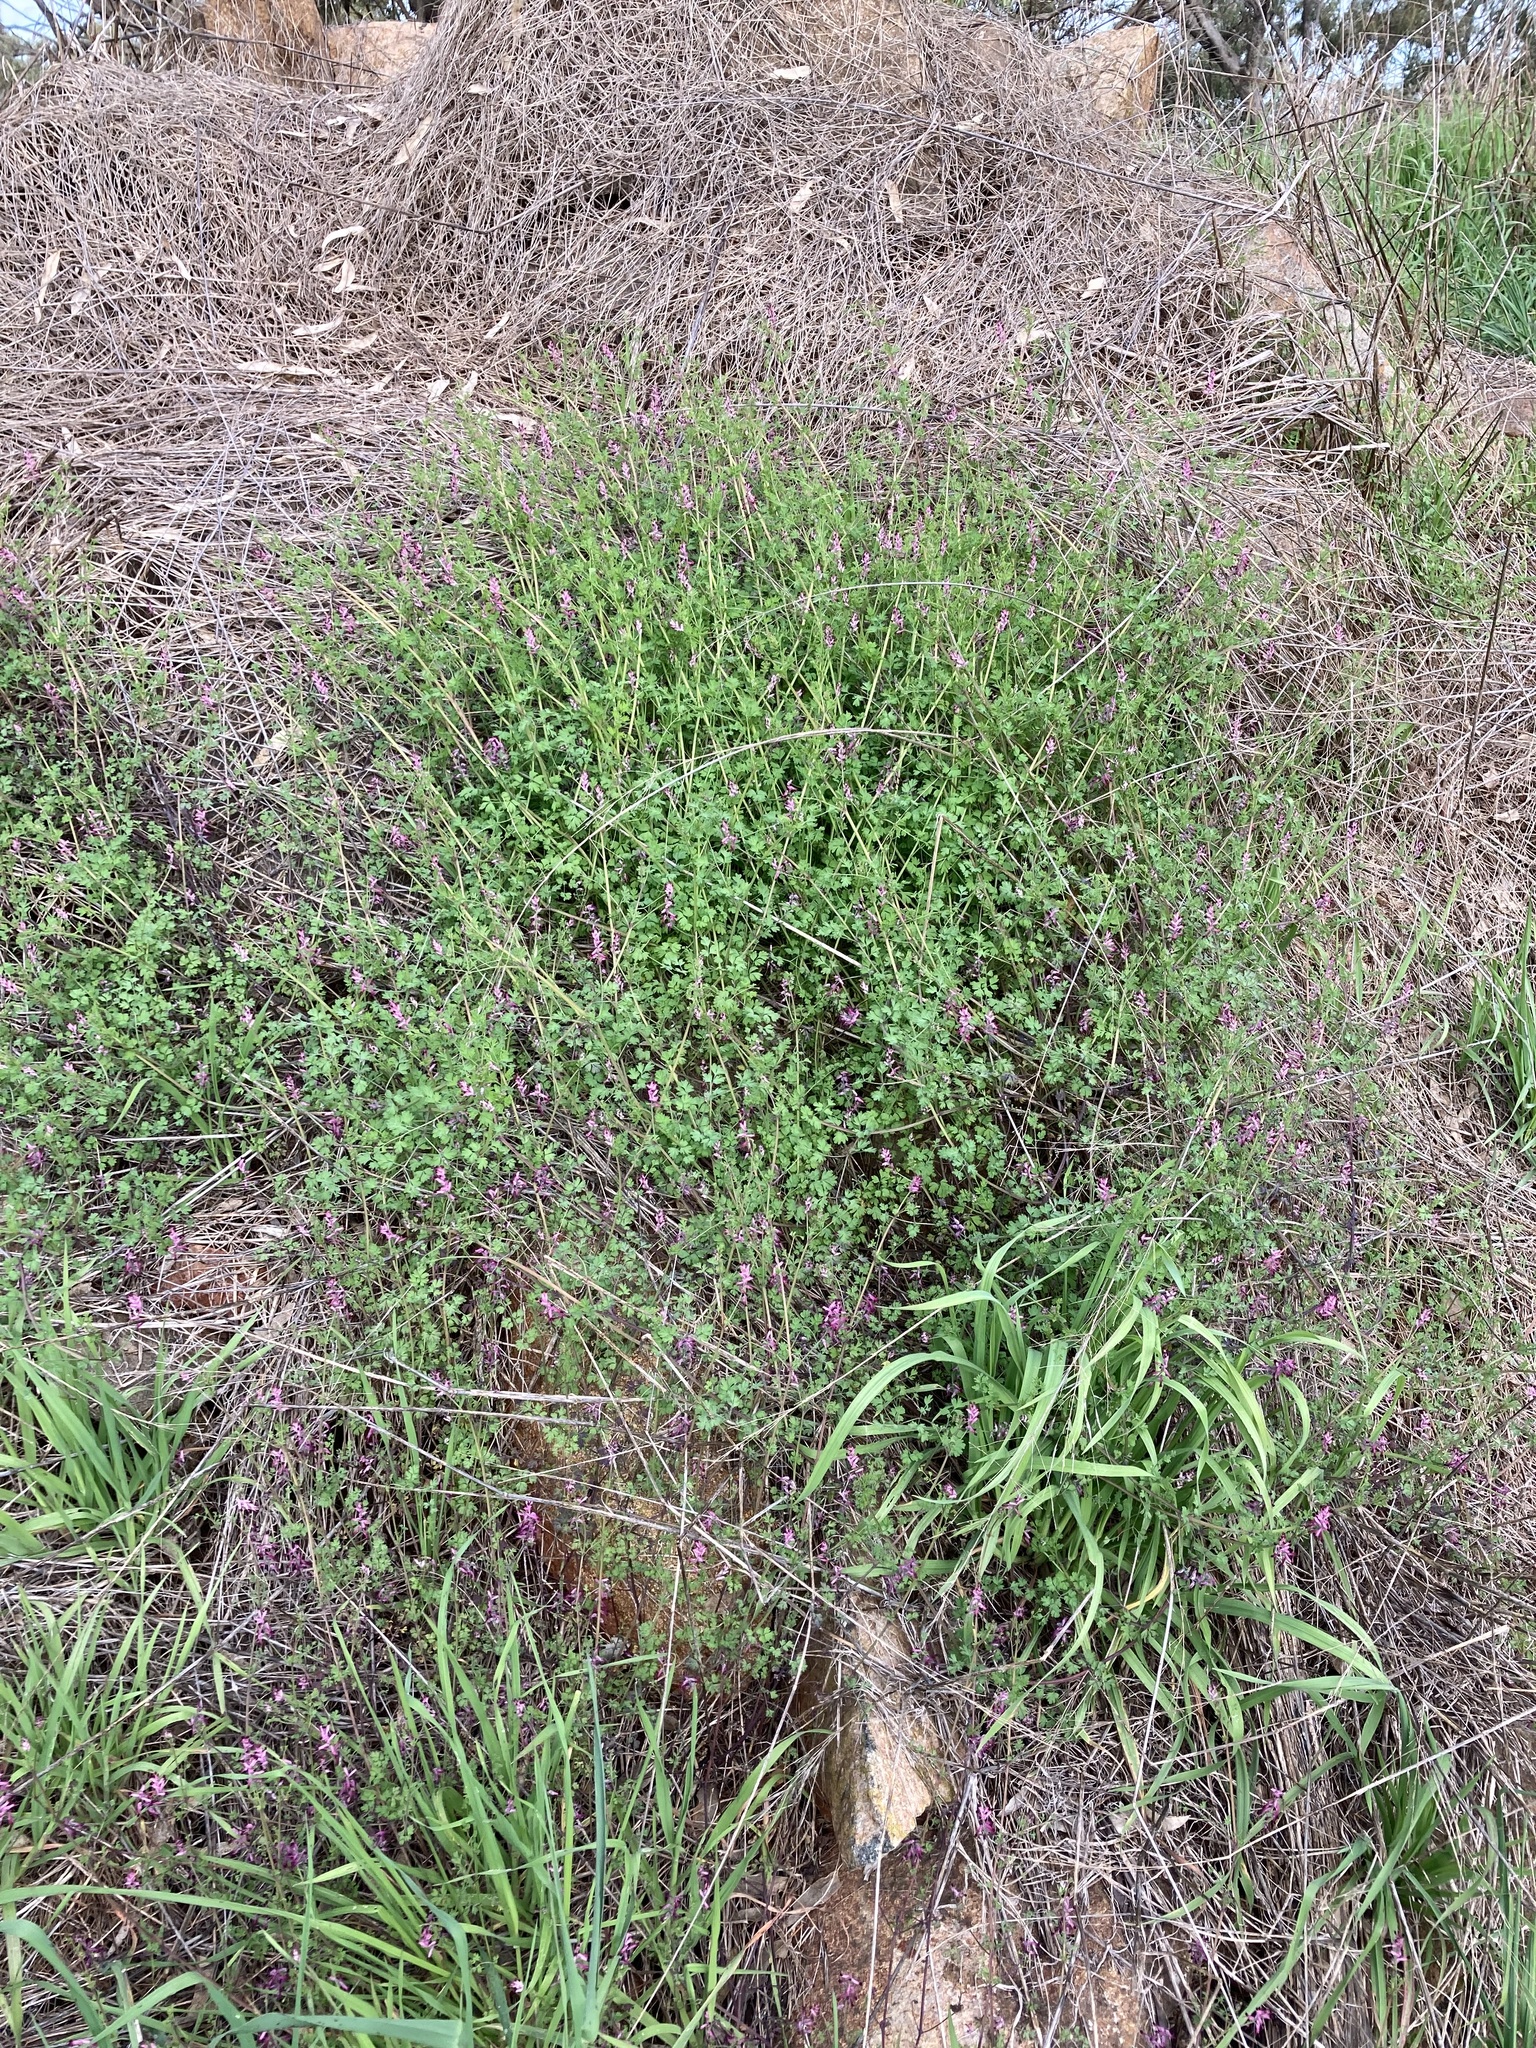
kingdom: Plantae
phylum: Tracheophyta
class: Magnoliopsida
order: Ranunculales
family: Papaveraceae
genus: Fumaria
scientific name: Fumaria muralis
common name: Common ramping-fumitory
